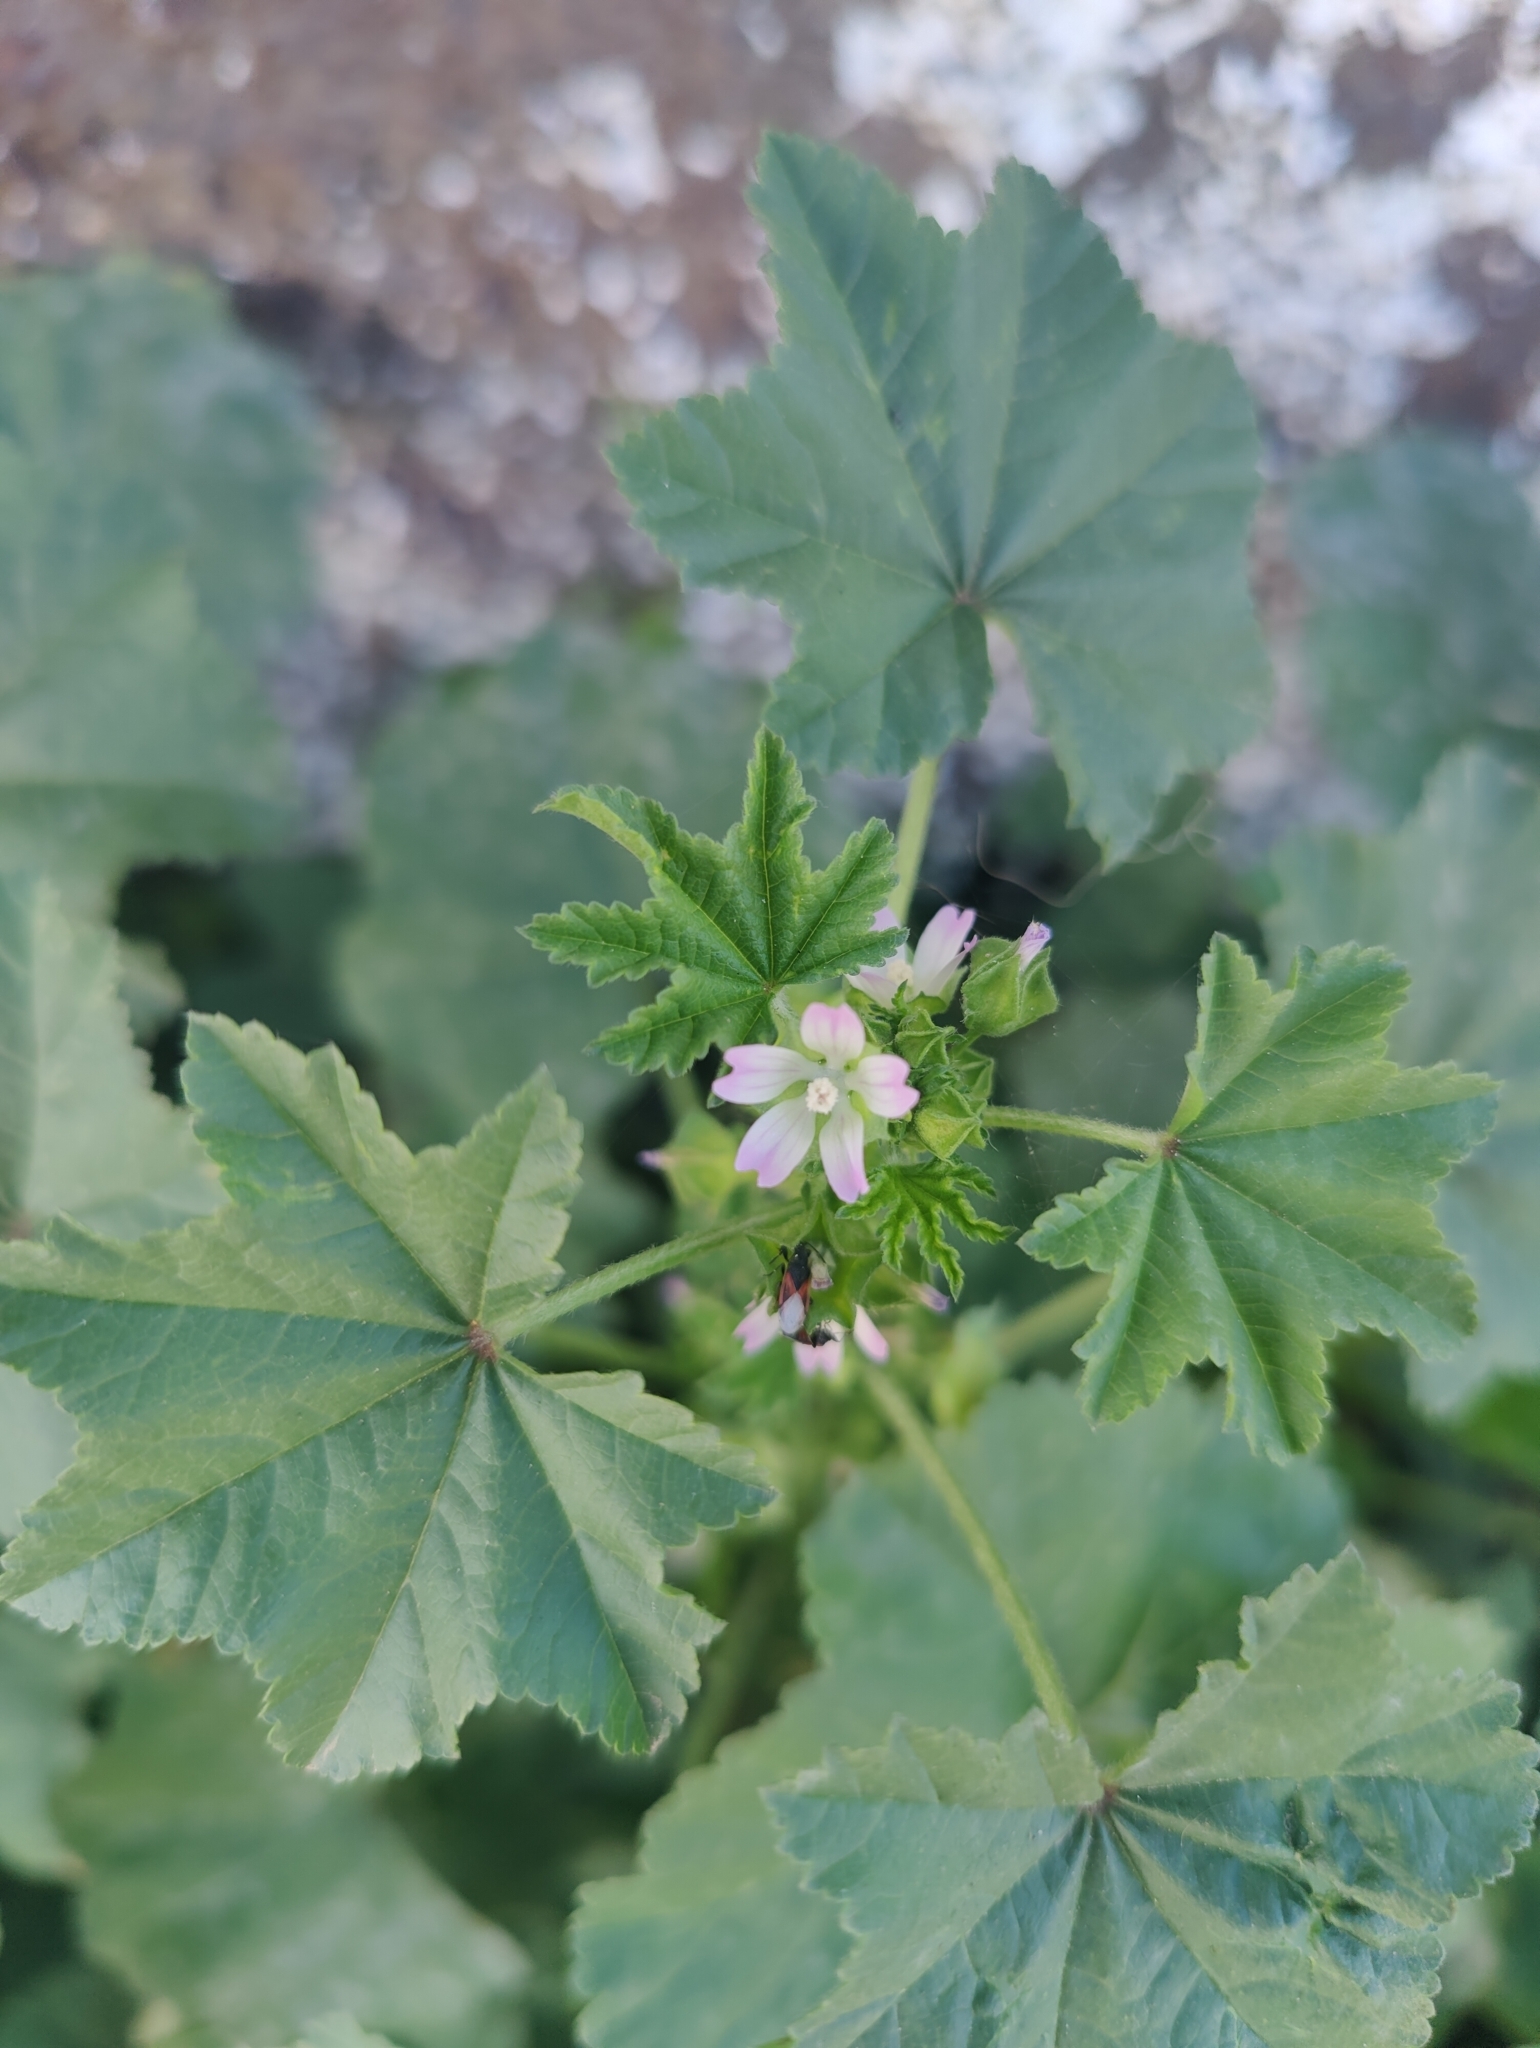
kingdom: Plantae
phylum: Tracheophyta
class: Magnoliopsida
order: Malvales
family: Malvaceae
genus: Malva
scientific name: Malva parviflora
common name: Least mallow
